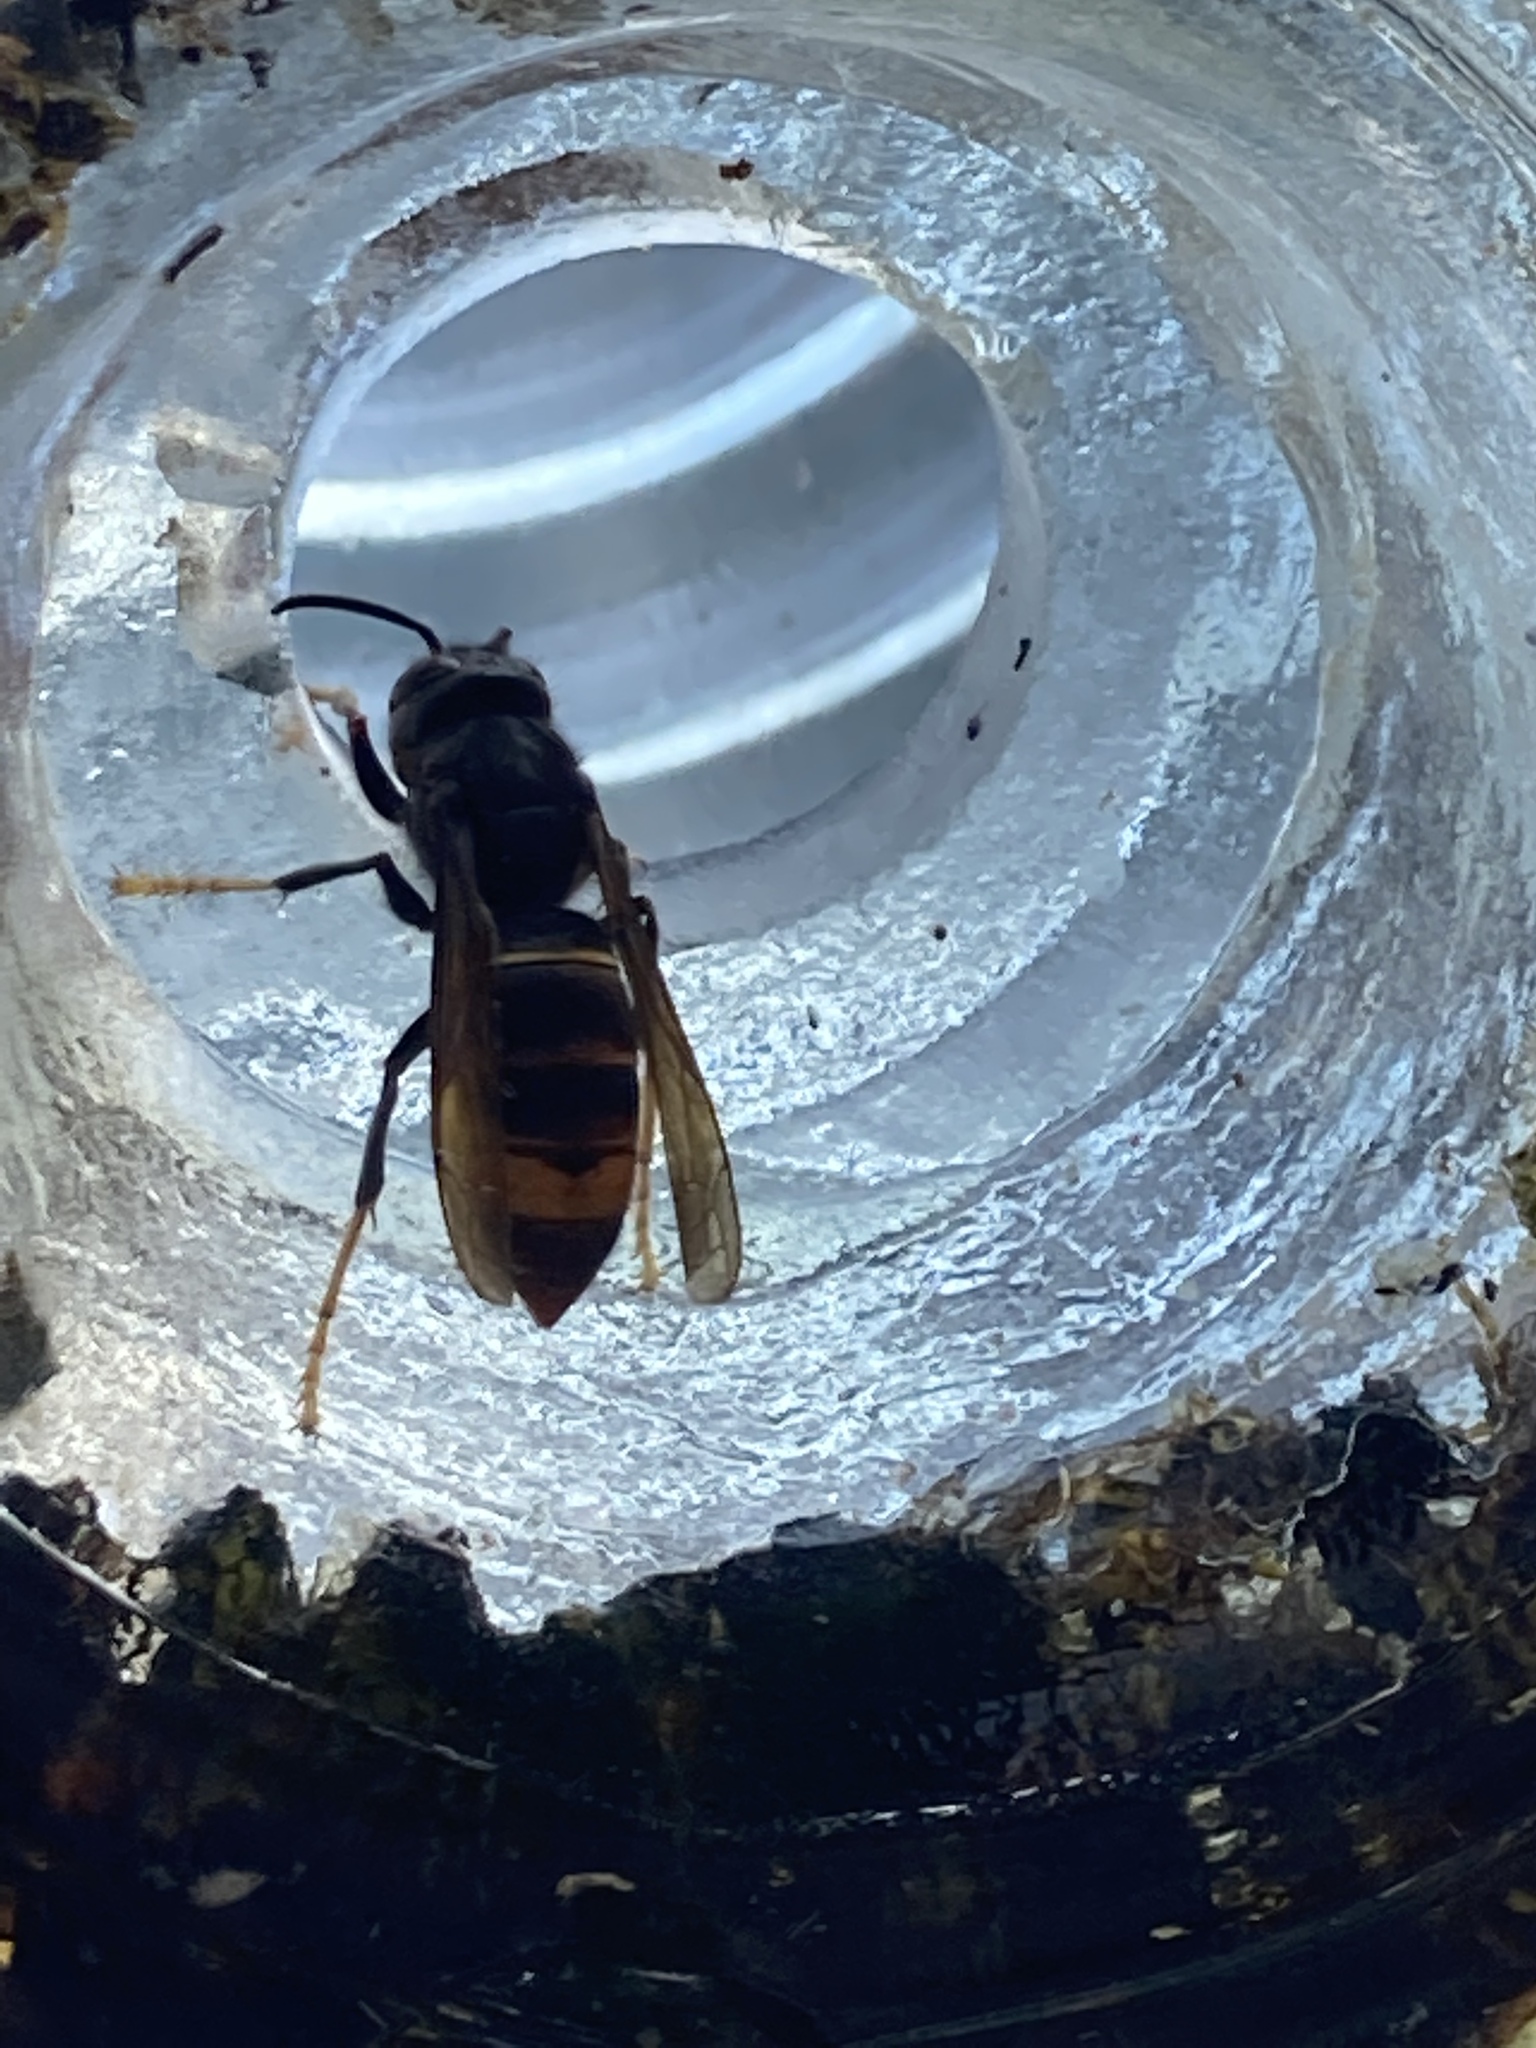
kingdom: Animalia
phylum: Arthropoda
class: Insecta
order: Hymenoptera
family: Vespidae
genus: Vespa
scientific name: Vespa velutina
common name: Asian hornet
